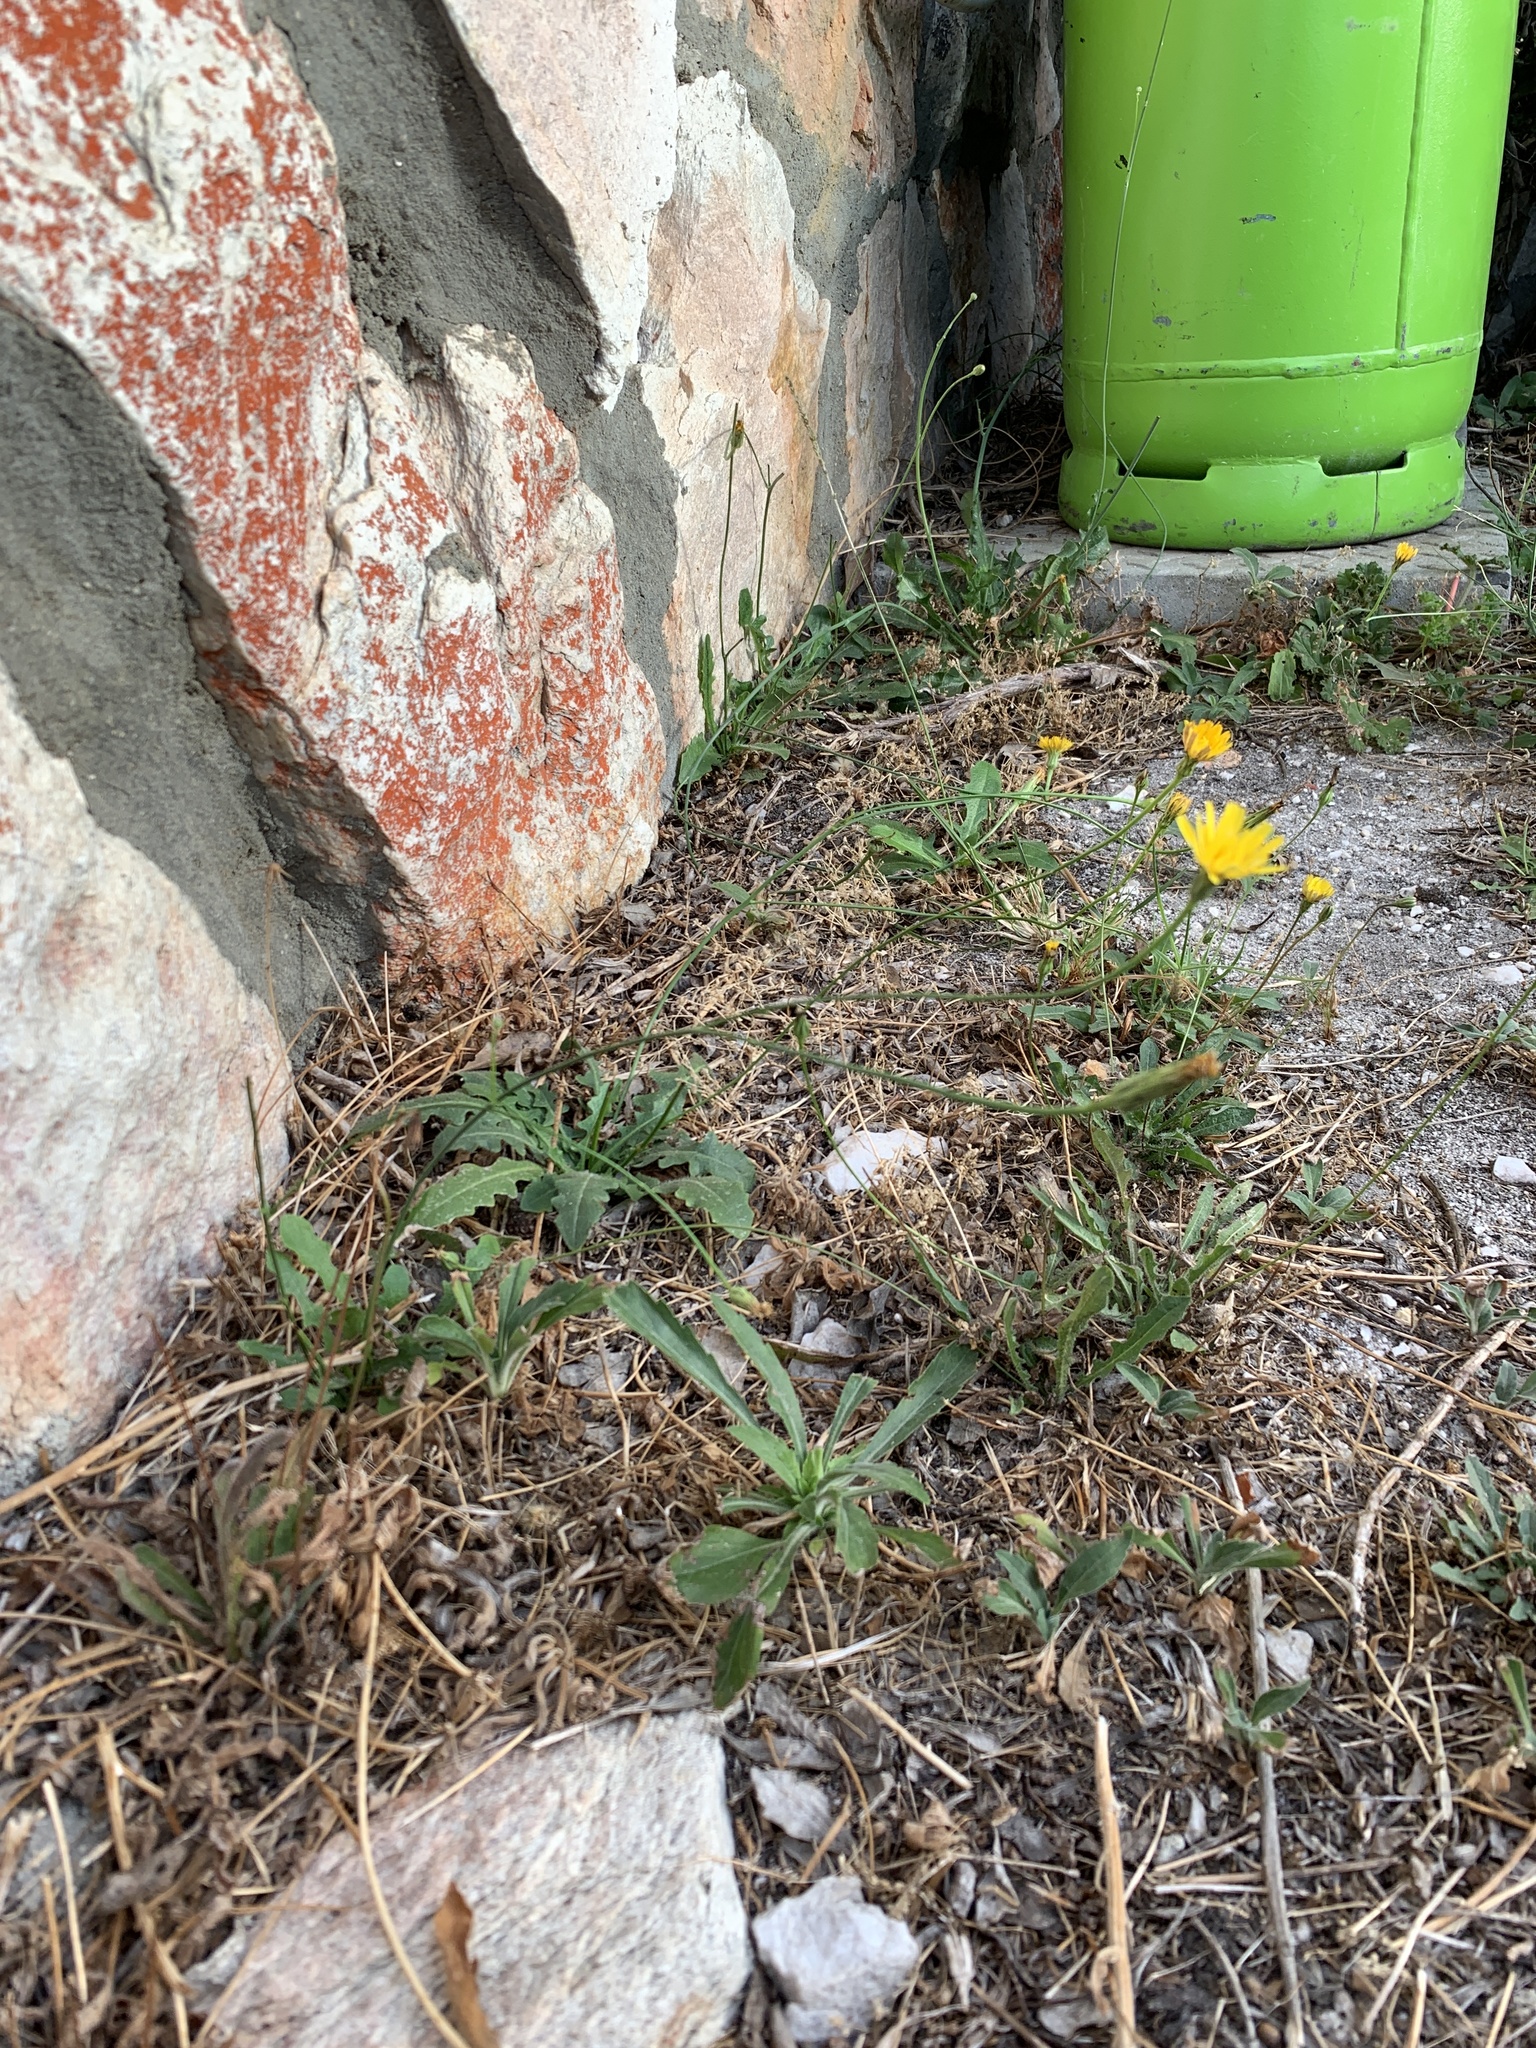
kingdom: Plantae
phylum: Tracheophyta
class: Magnoliopsida
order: Asterales
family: Asteraceae
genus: Hypochaeris
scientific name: Hypochaeris radicata
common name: Flatweed
